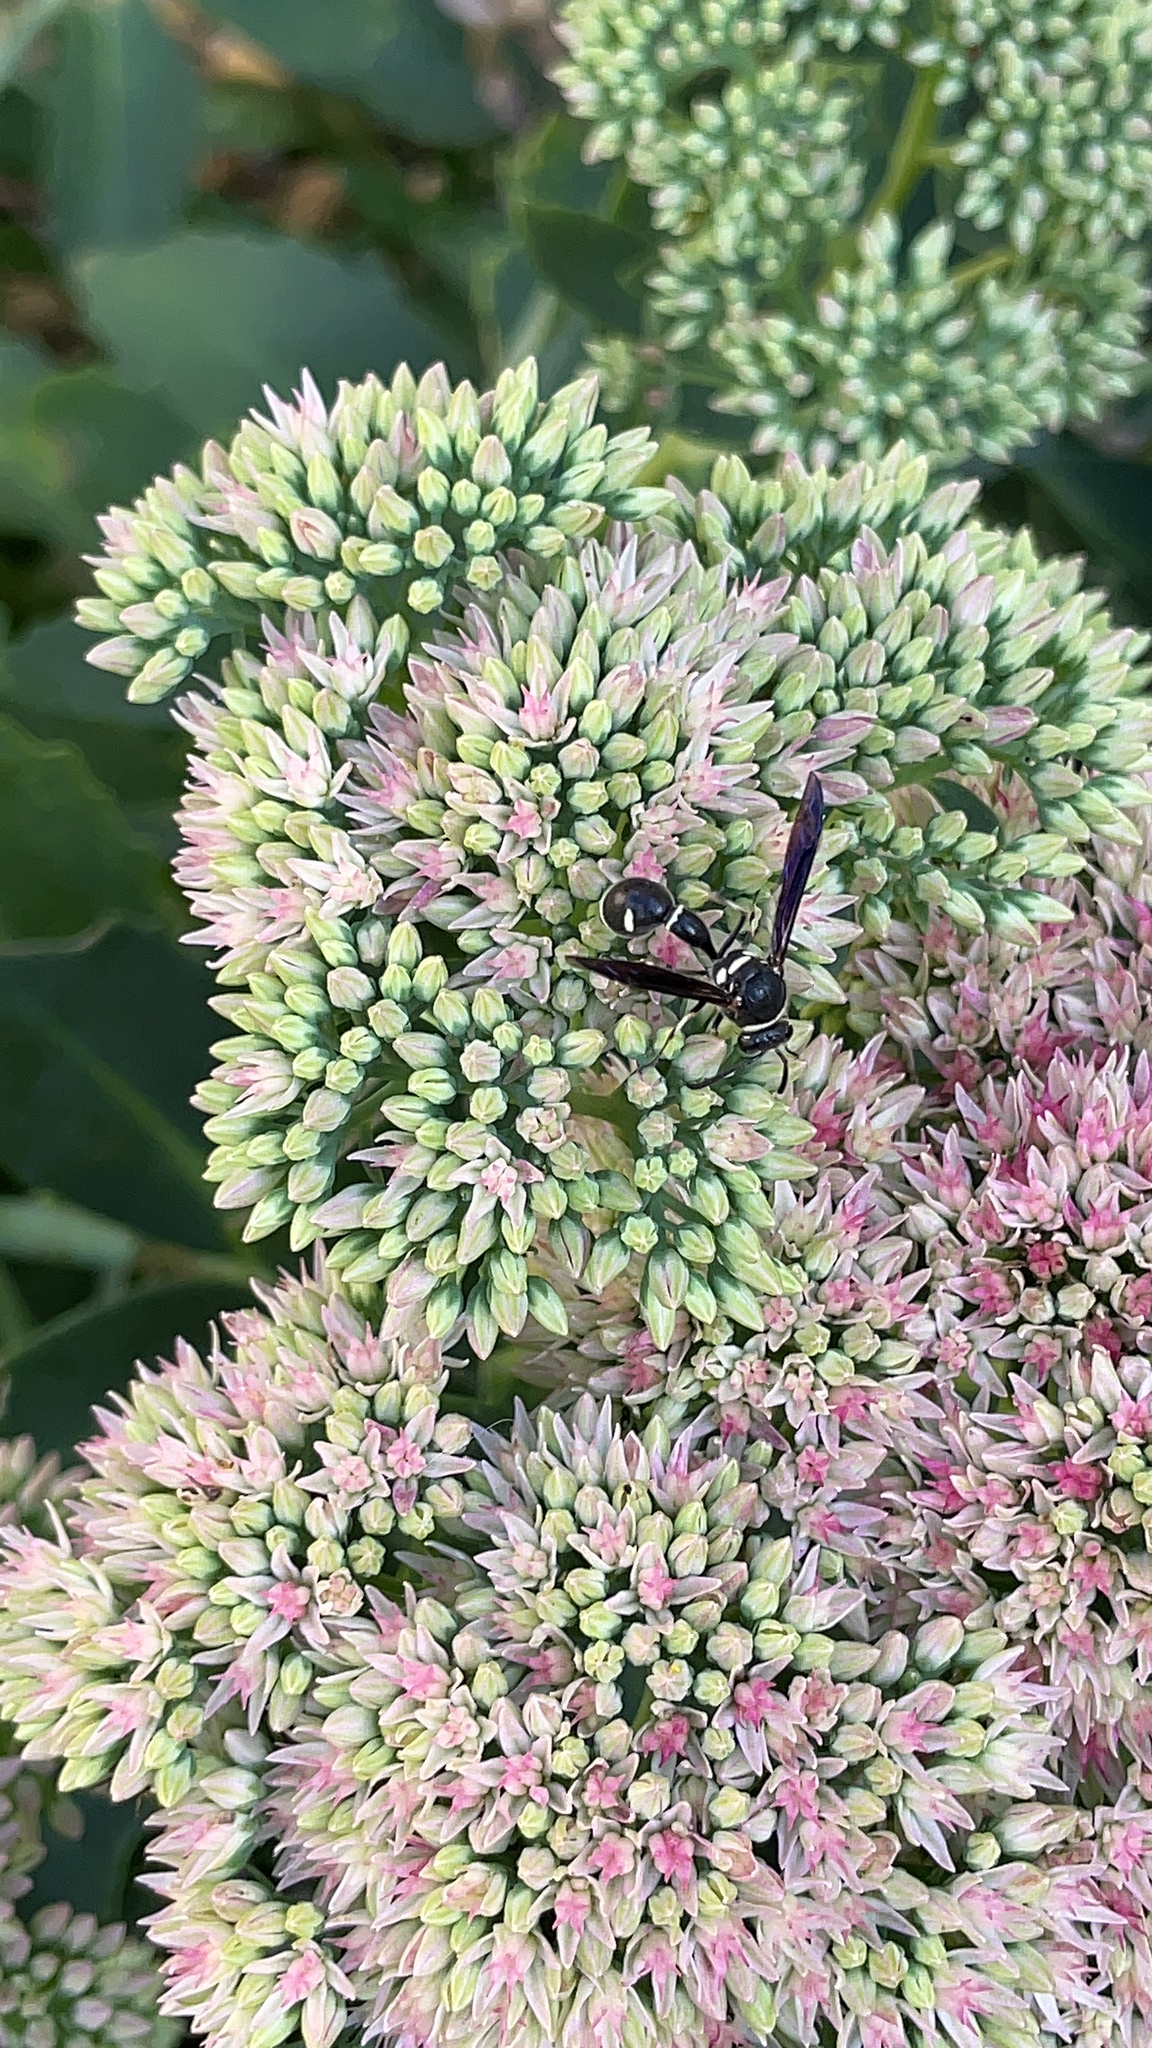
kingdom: Animalia
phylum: Arthropoda
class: Insecta
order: Hymenoptera
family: Vespidae
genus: Eumenes
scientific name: Eumenes fraternus
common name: Fraternal potter wasp
